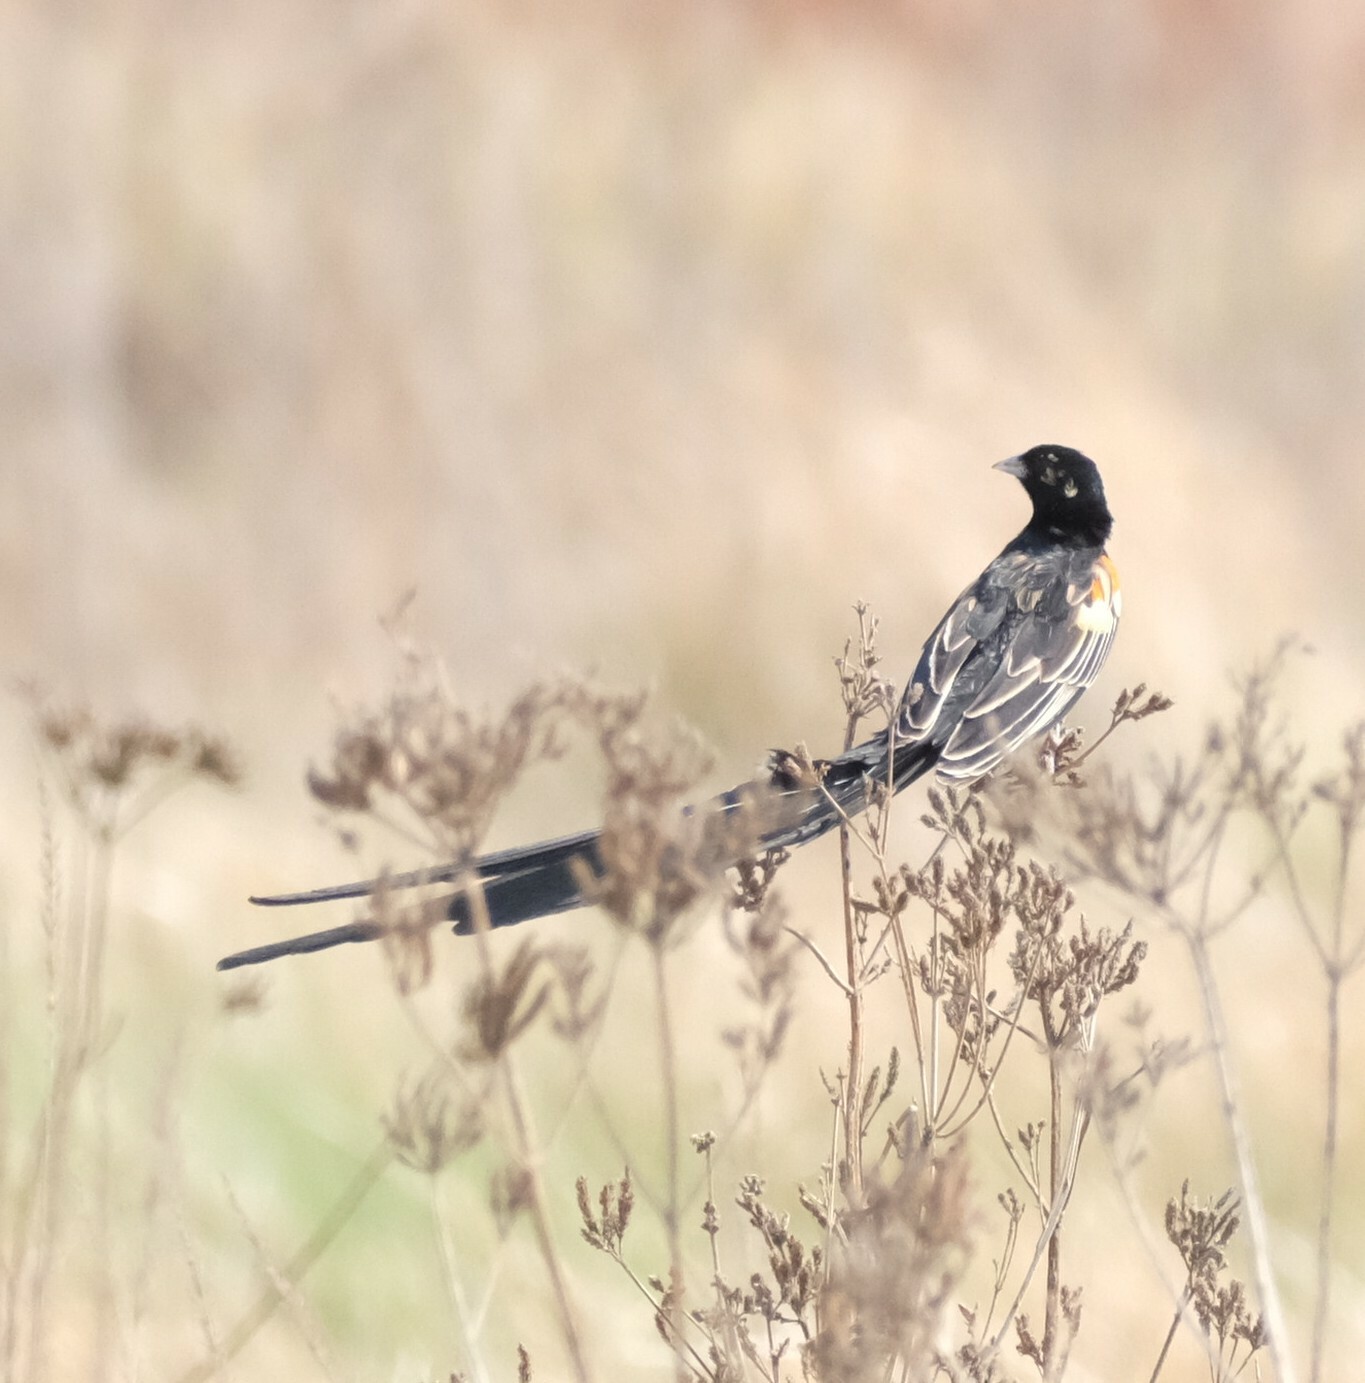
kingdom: Animalia
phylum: Chordata
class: Aves
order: Passeriformes
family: Ploceidae
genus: Euplectes
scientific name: Euplectes progne
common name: Long-tailed widowbird
